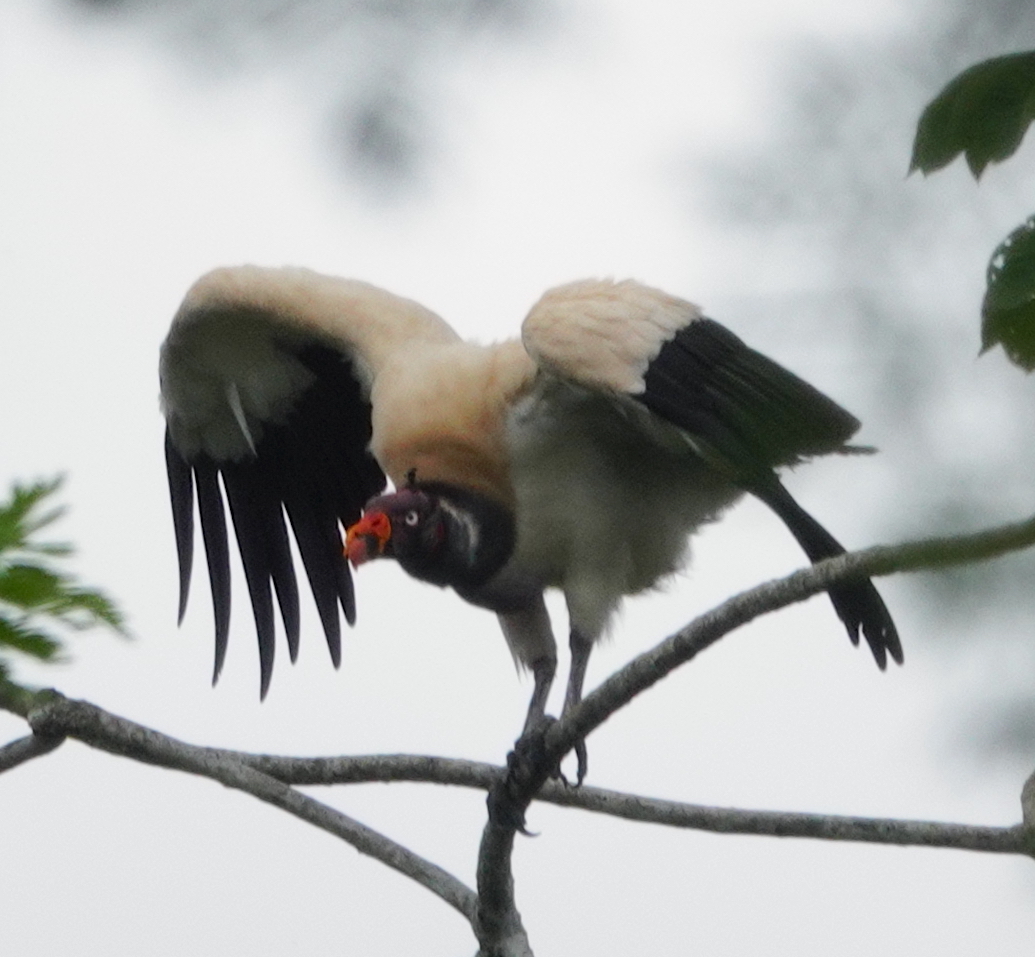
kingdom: Animalia
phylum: Chordata
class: Aves
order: Accipitriformes
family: Cathartidae
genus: Sarcoramphus
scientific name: Sarcoramphus papa
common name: King vulture
